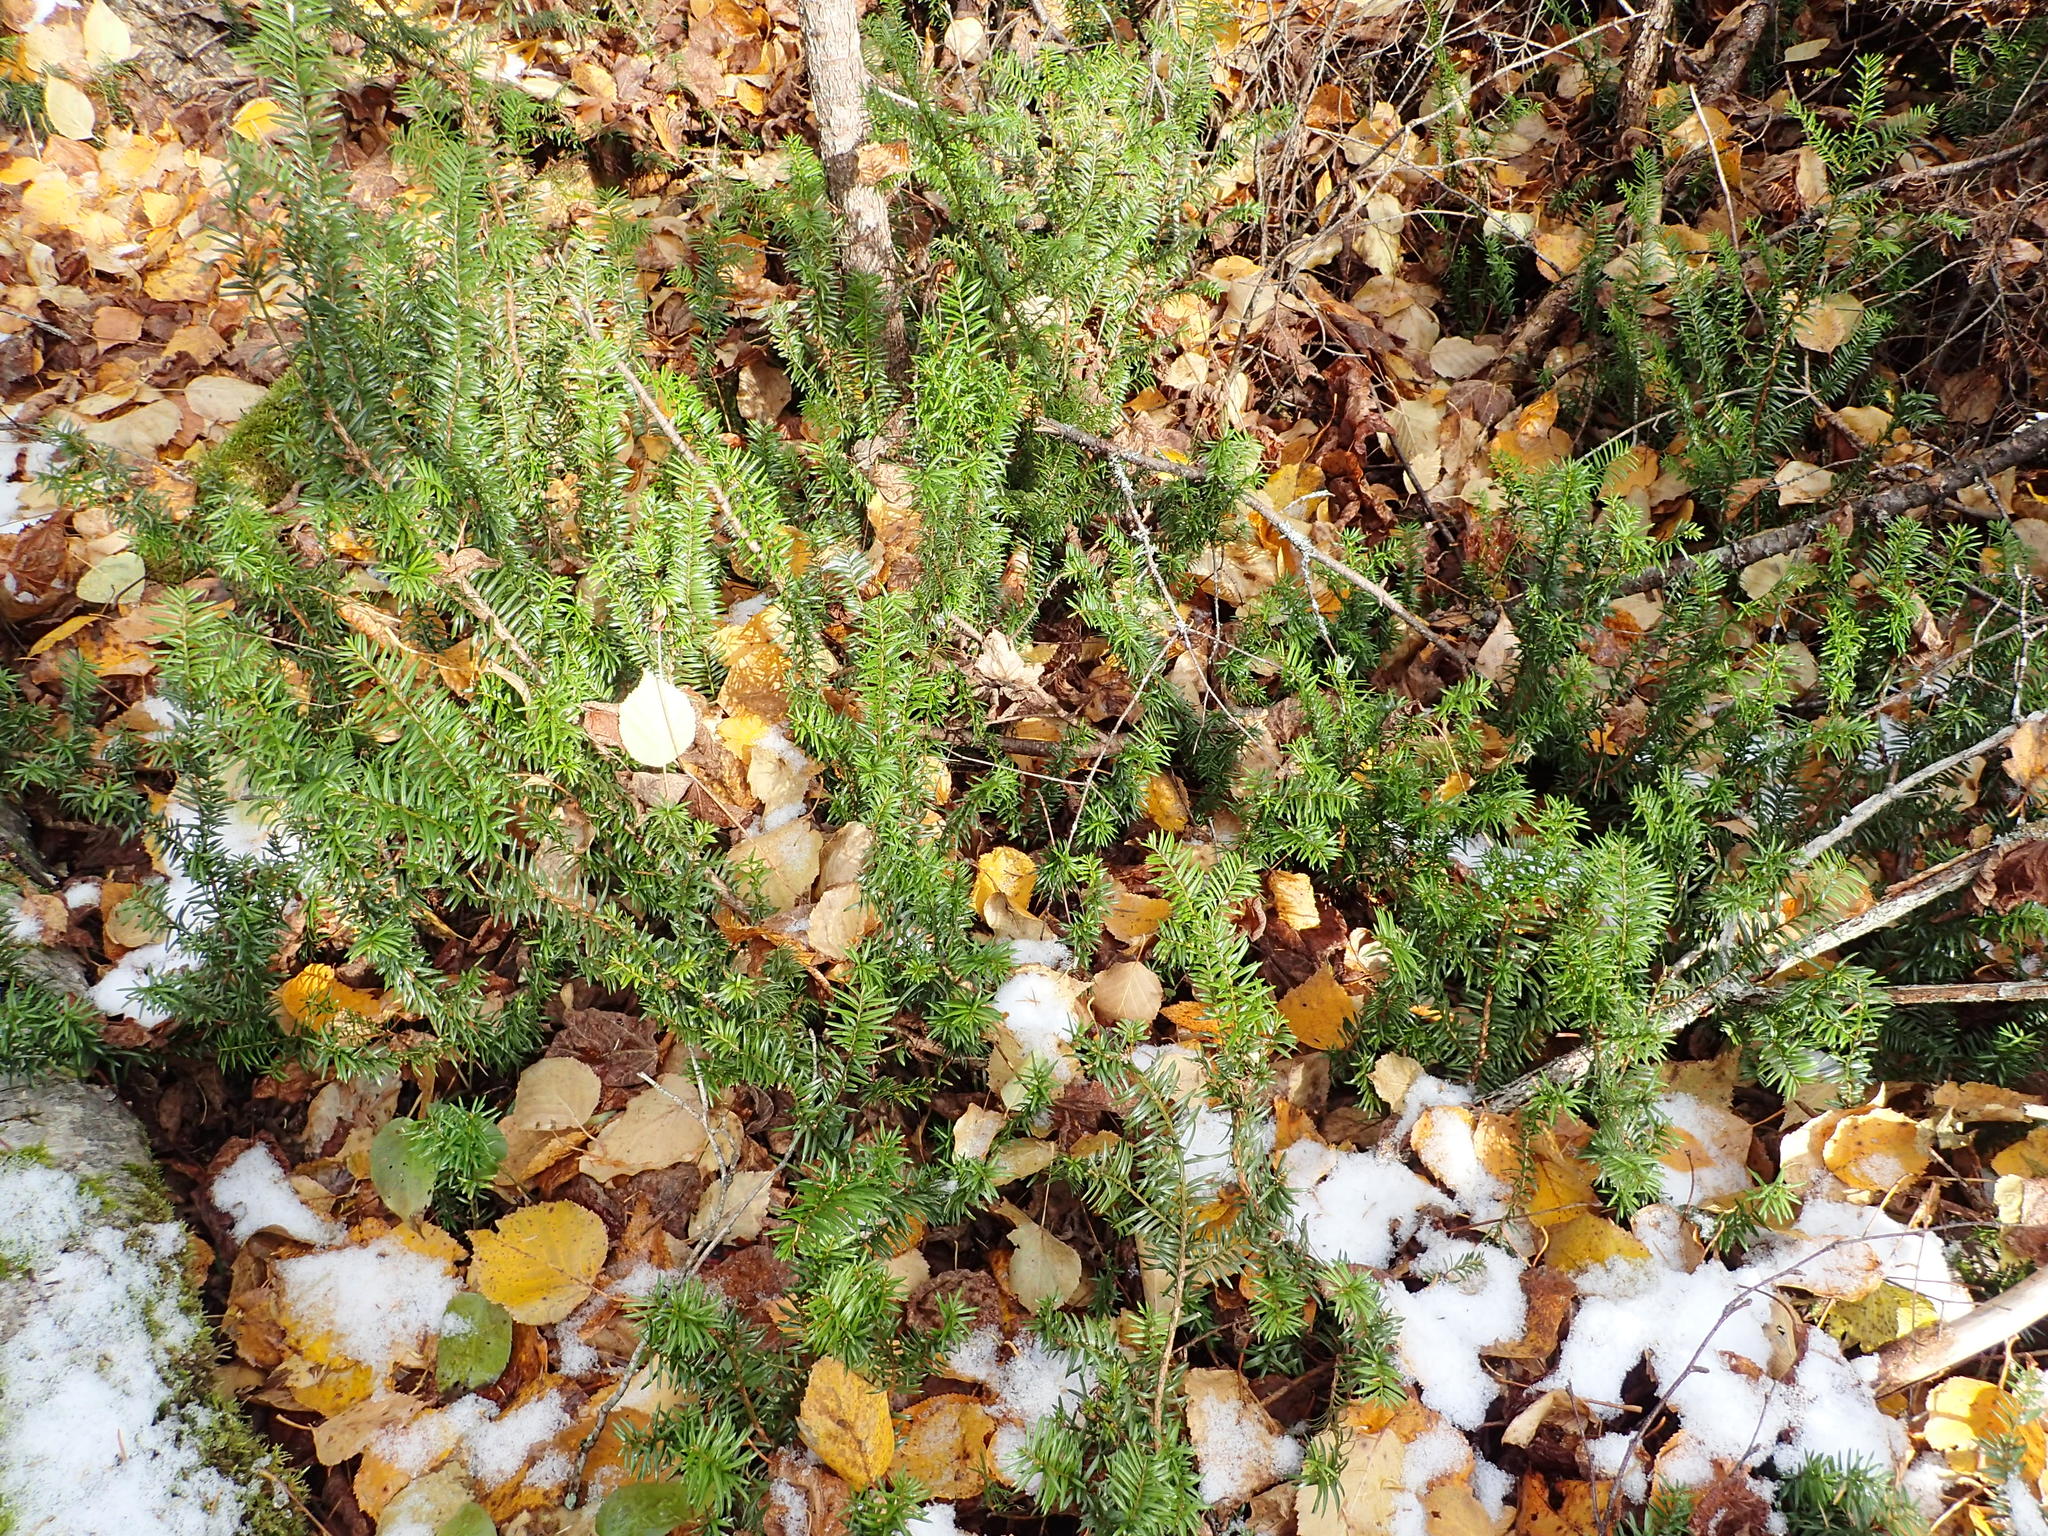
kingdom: Plantae
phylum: Tracheophyta
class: Pinopsida
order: Pinales
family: Taxaceae
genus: Taxus
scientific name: Taxus canadensis
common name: American yew
